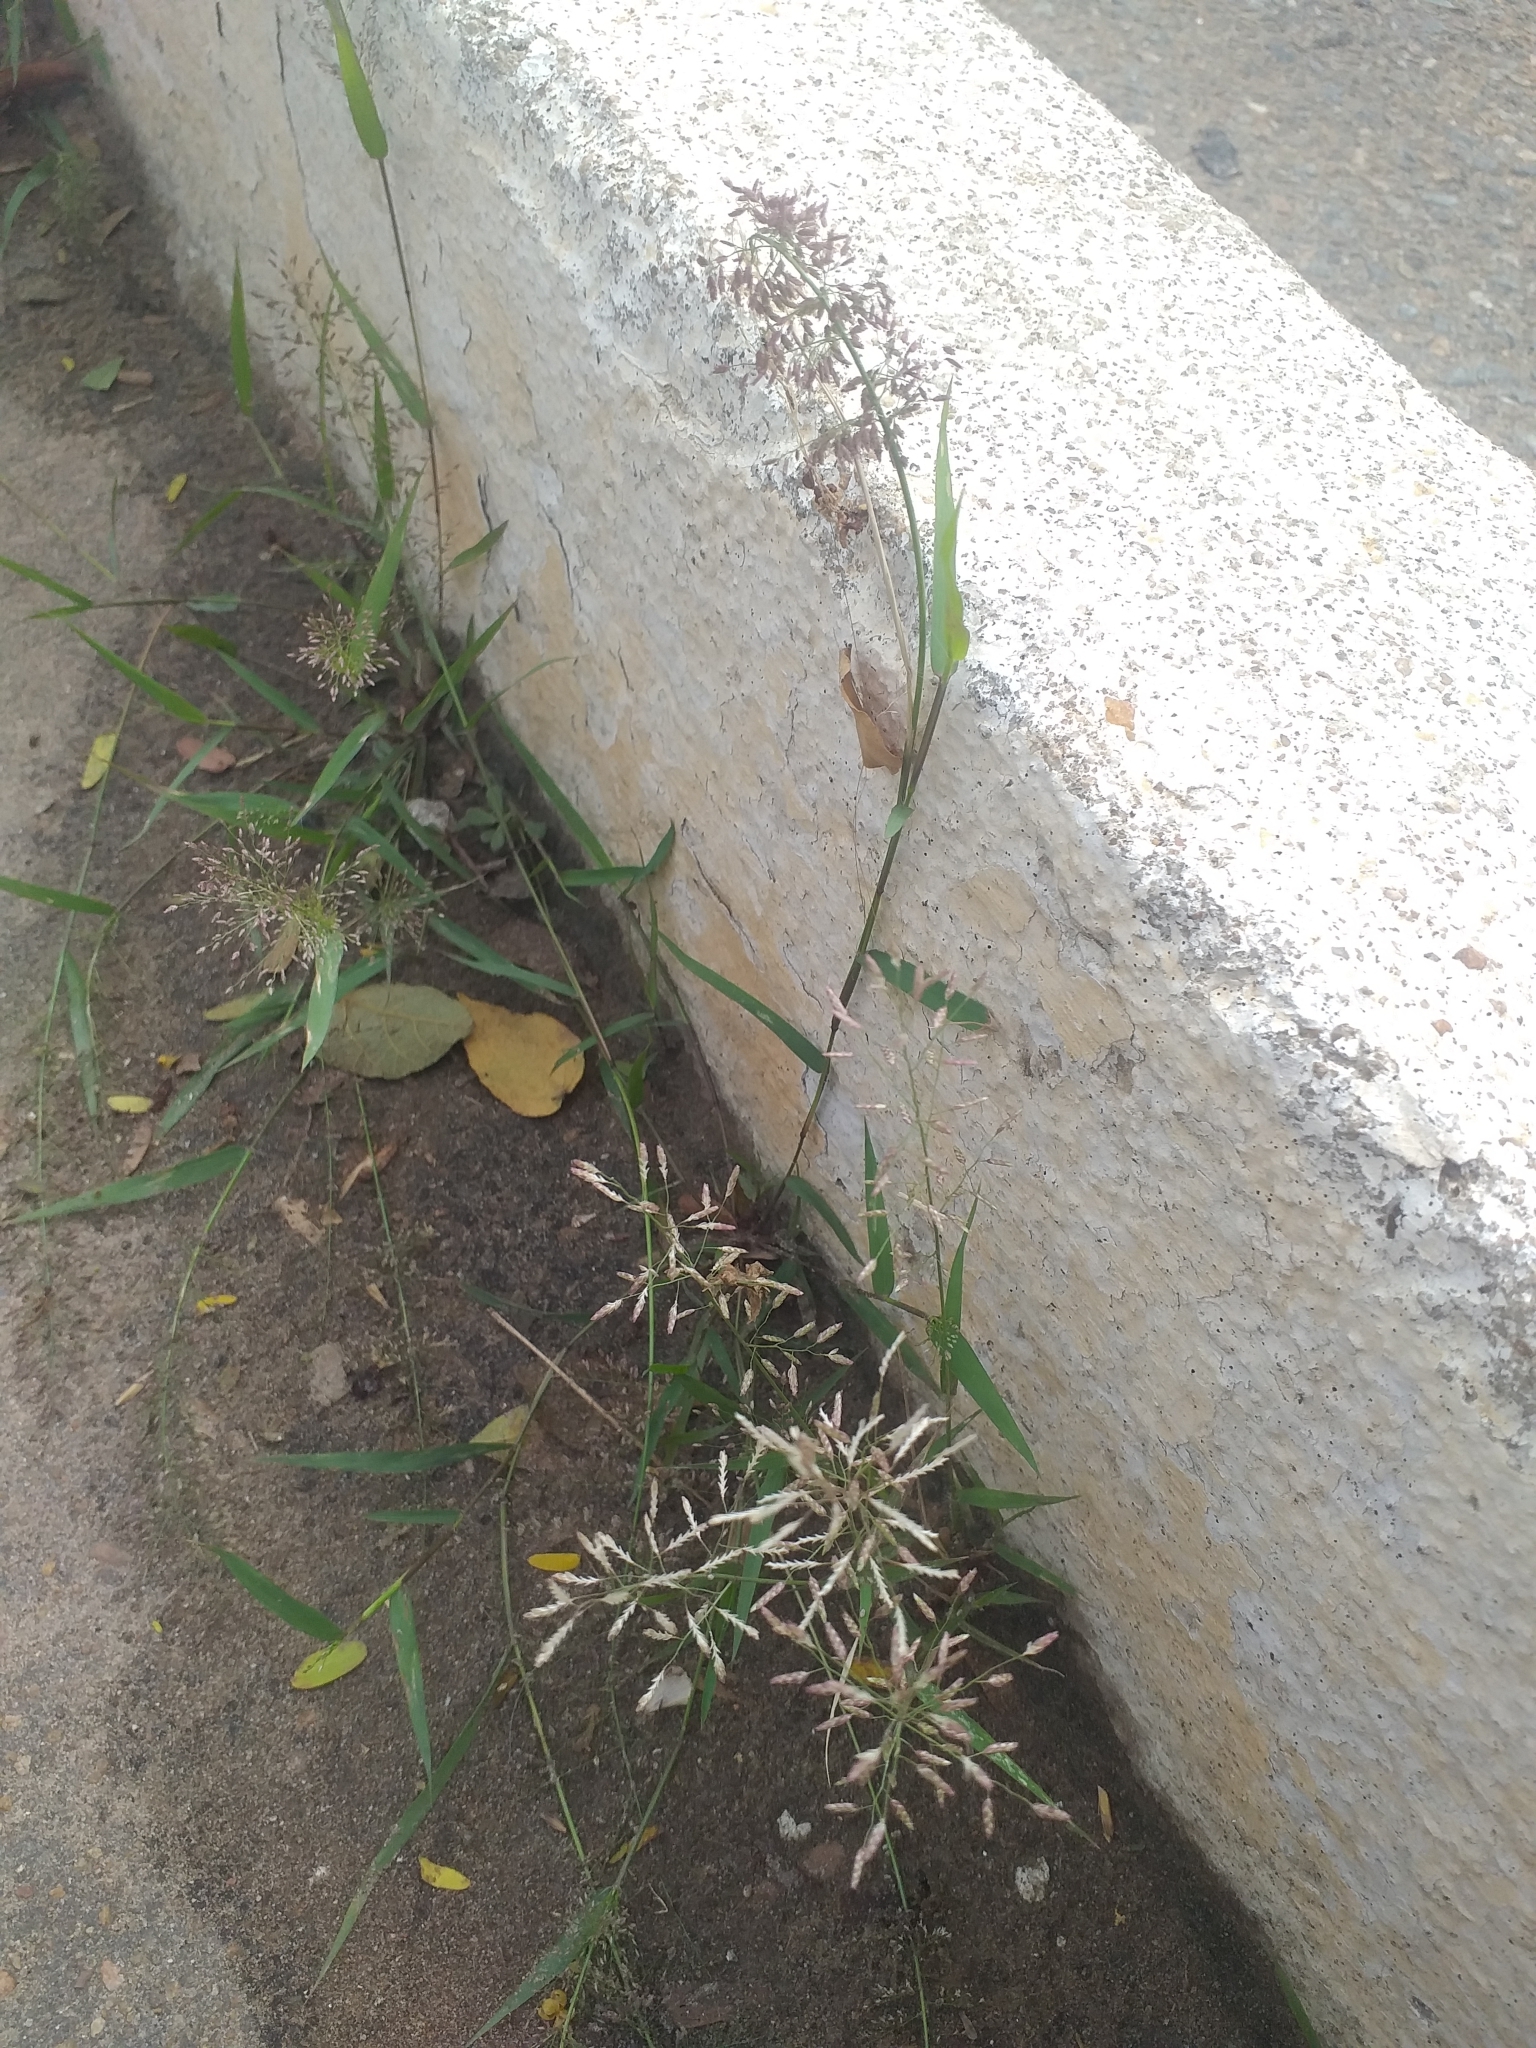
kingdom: Plantae
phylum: Tracheophyta
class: Liliopsida
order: Poales
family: Poaceae
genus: Eragrostis
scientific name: Eragrostis tenella
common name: Japanese lovegrass
